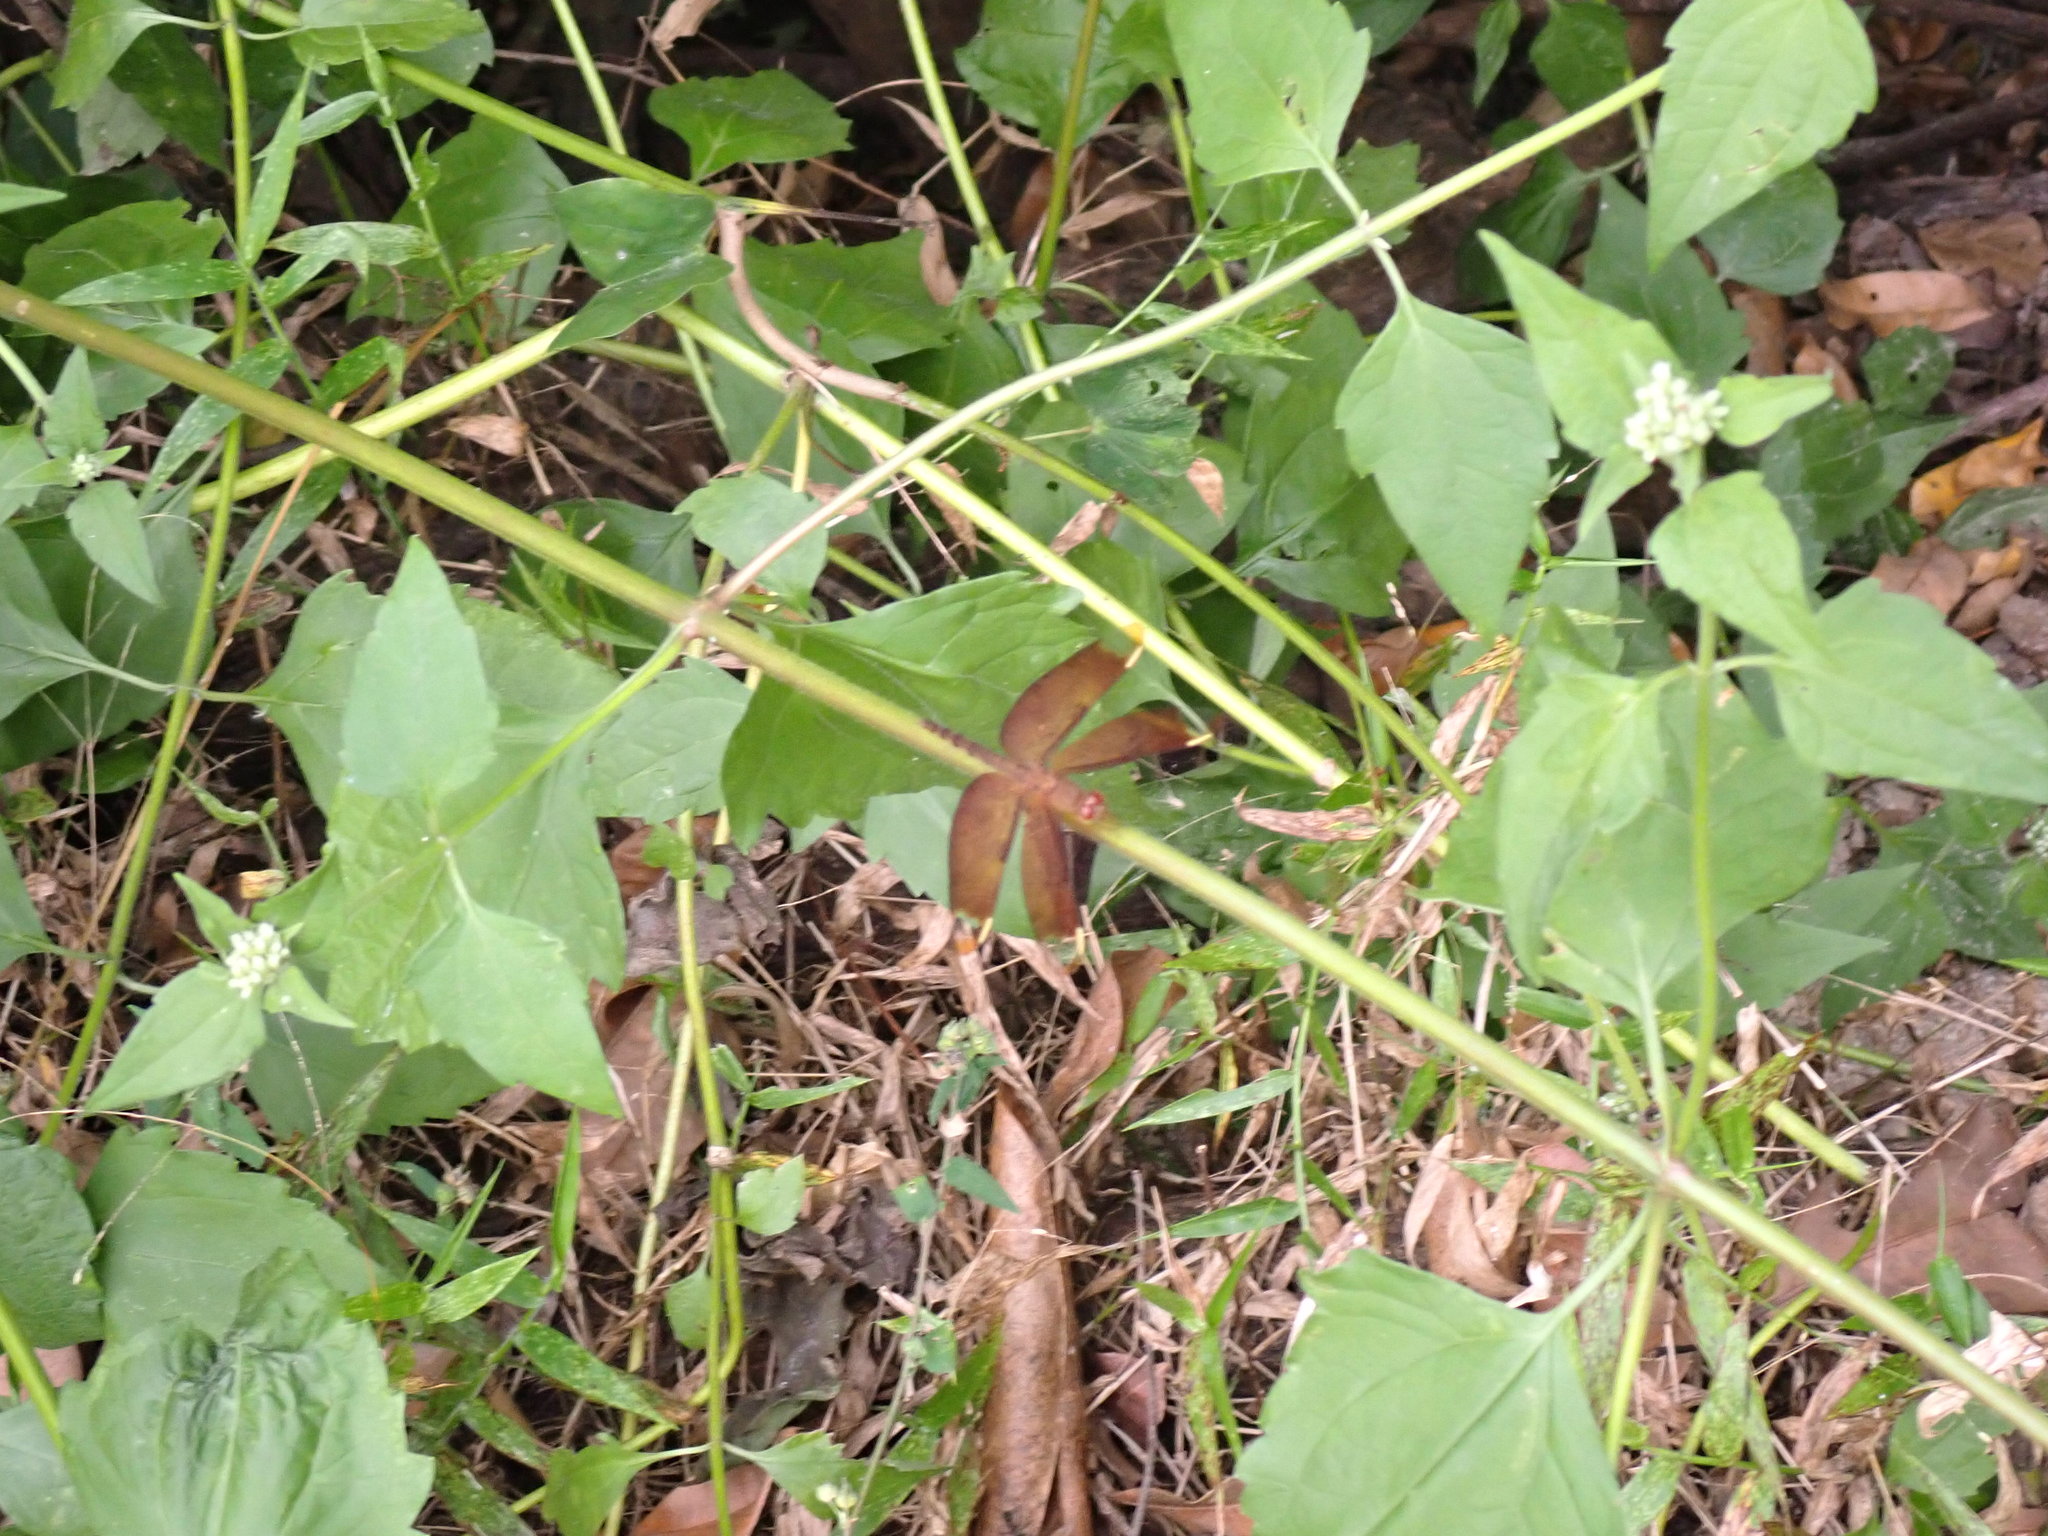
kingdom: Animalia
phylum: Arthropoda
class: Insecta
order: Odonata
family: Libellulidae
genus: Neurothemis
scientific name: Neurothemis fulvia
